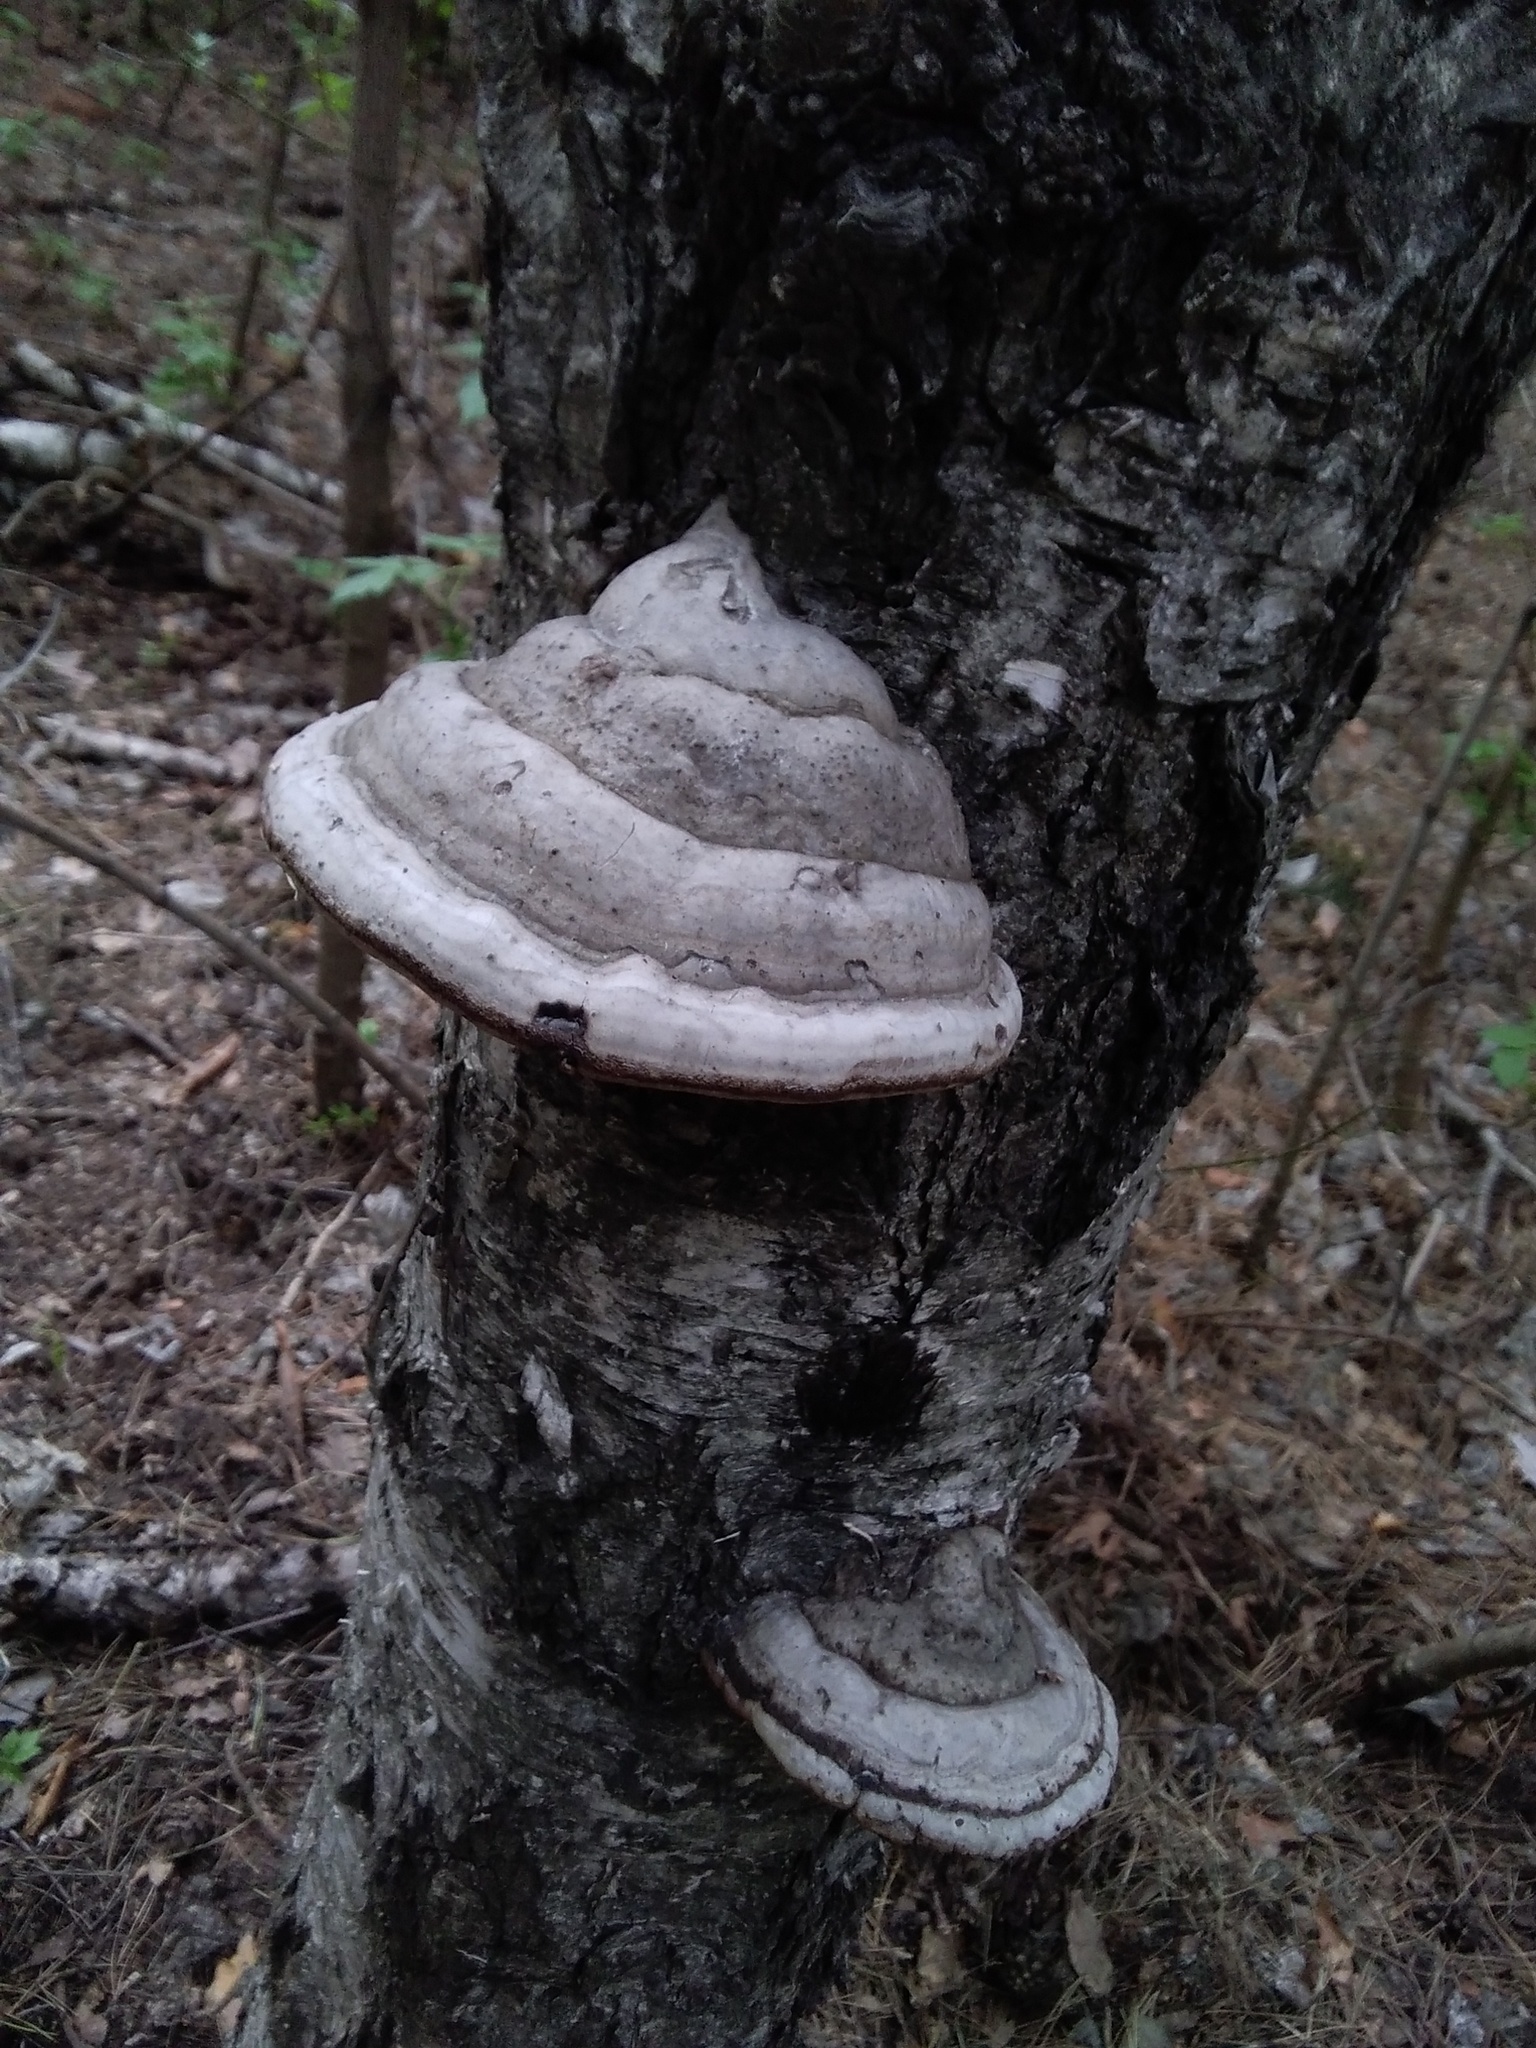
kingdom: Fungi
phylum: Basidiomycota
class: Agaricomycetes
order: Polyporales
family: Polyporaceae
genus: Fomes
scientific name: Fomes fomentarius
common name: Hoof fungus
